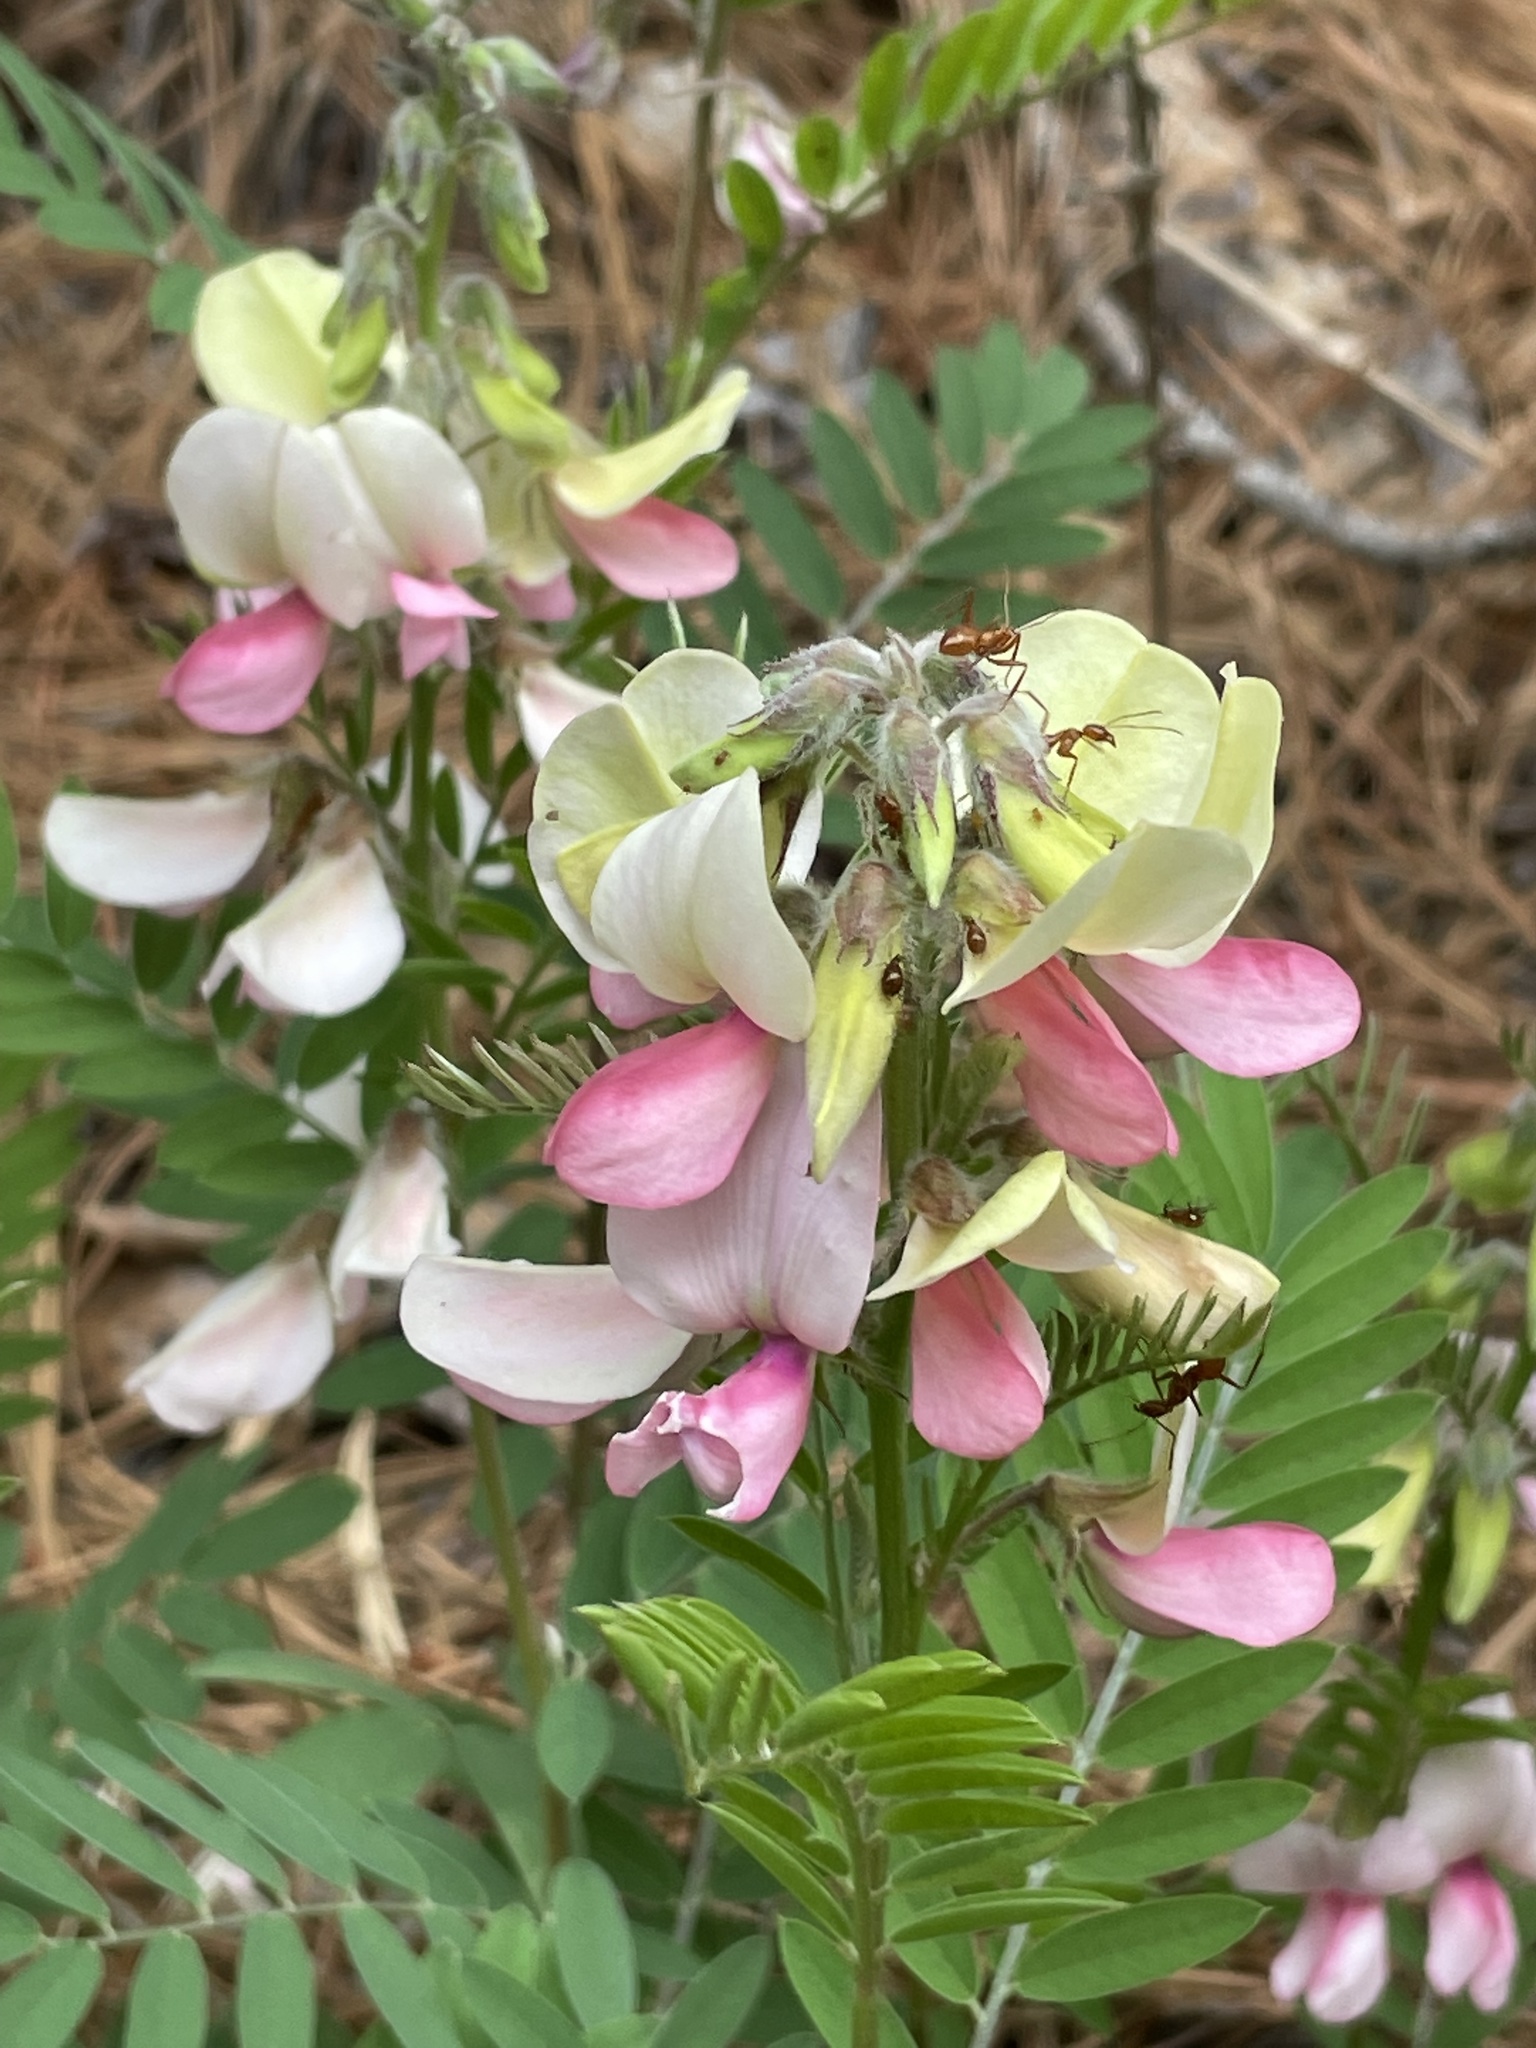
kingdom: Plantae
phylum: Tracheophyta
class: Magnoliopsida
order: Fabales
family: Fabaceae
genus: Tephrosia
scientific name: Tephrosia virginiana
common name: Rabbit-pea
